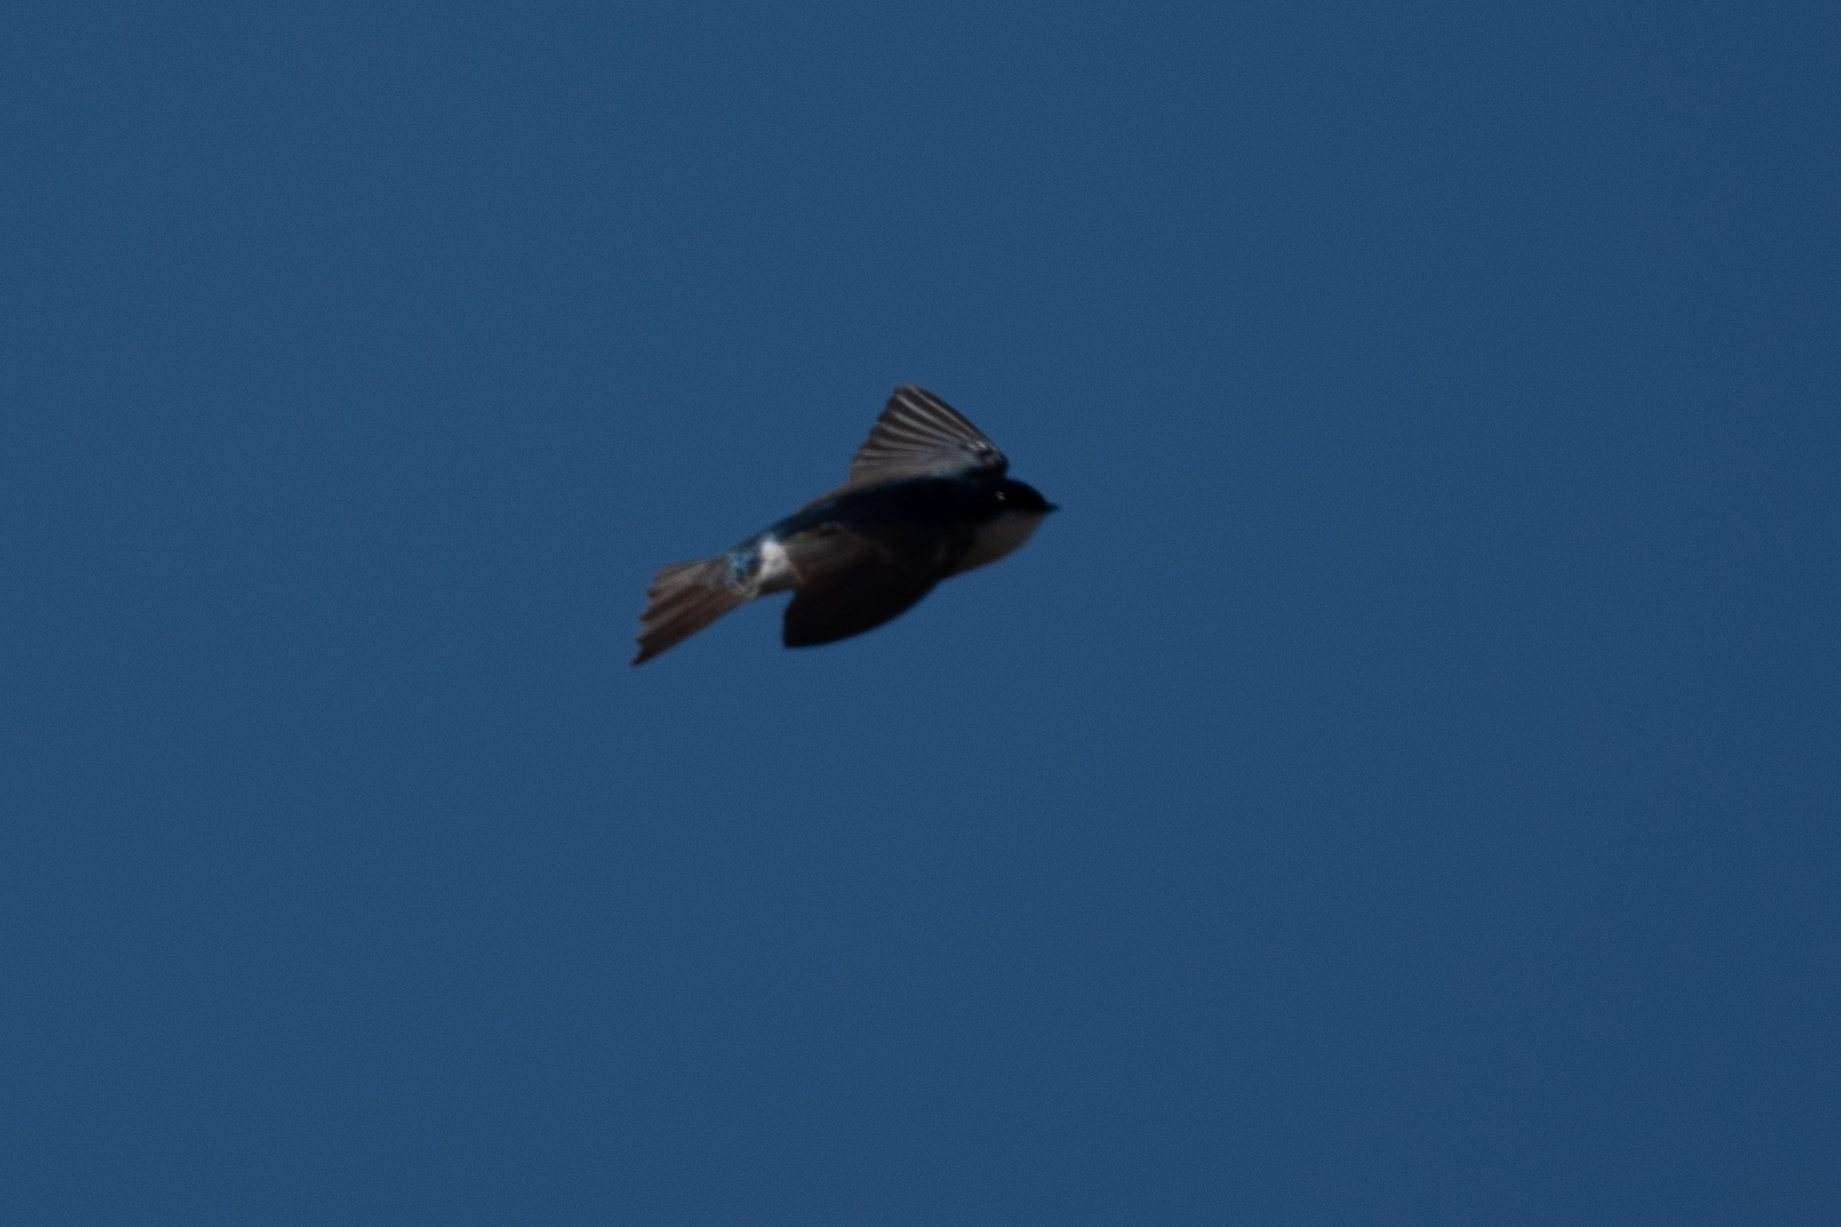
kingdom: Animalia
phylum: Chordata
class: Aves
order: Passeriformes
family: Hirundinidae
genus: Tachycineta
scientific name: Tachycineta bicolor
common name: Tree swallow
